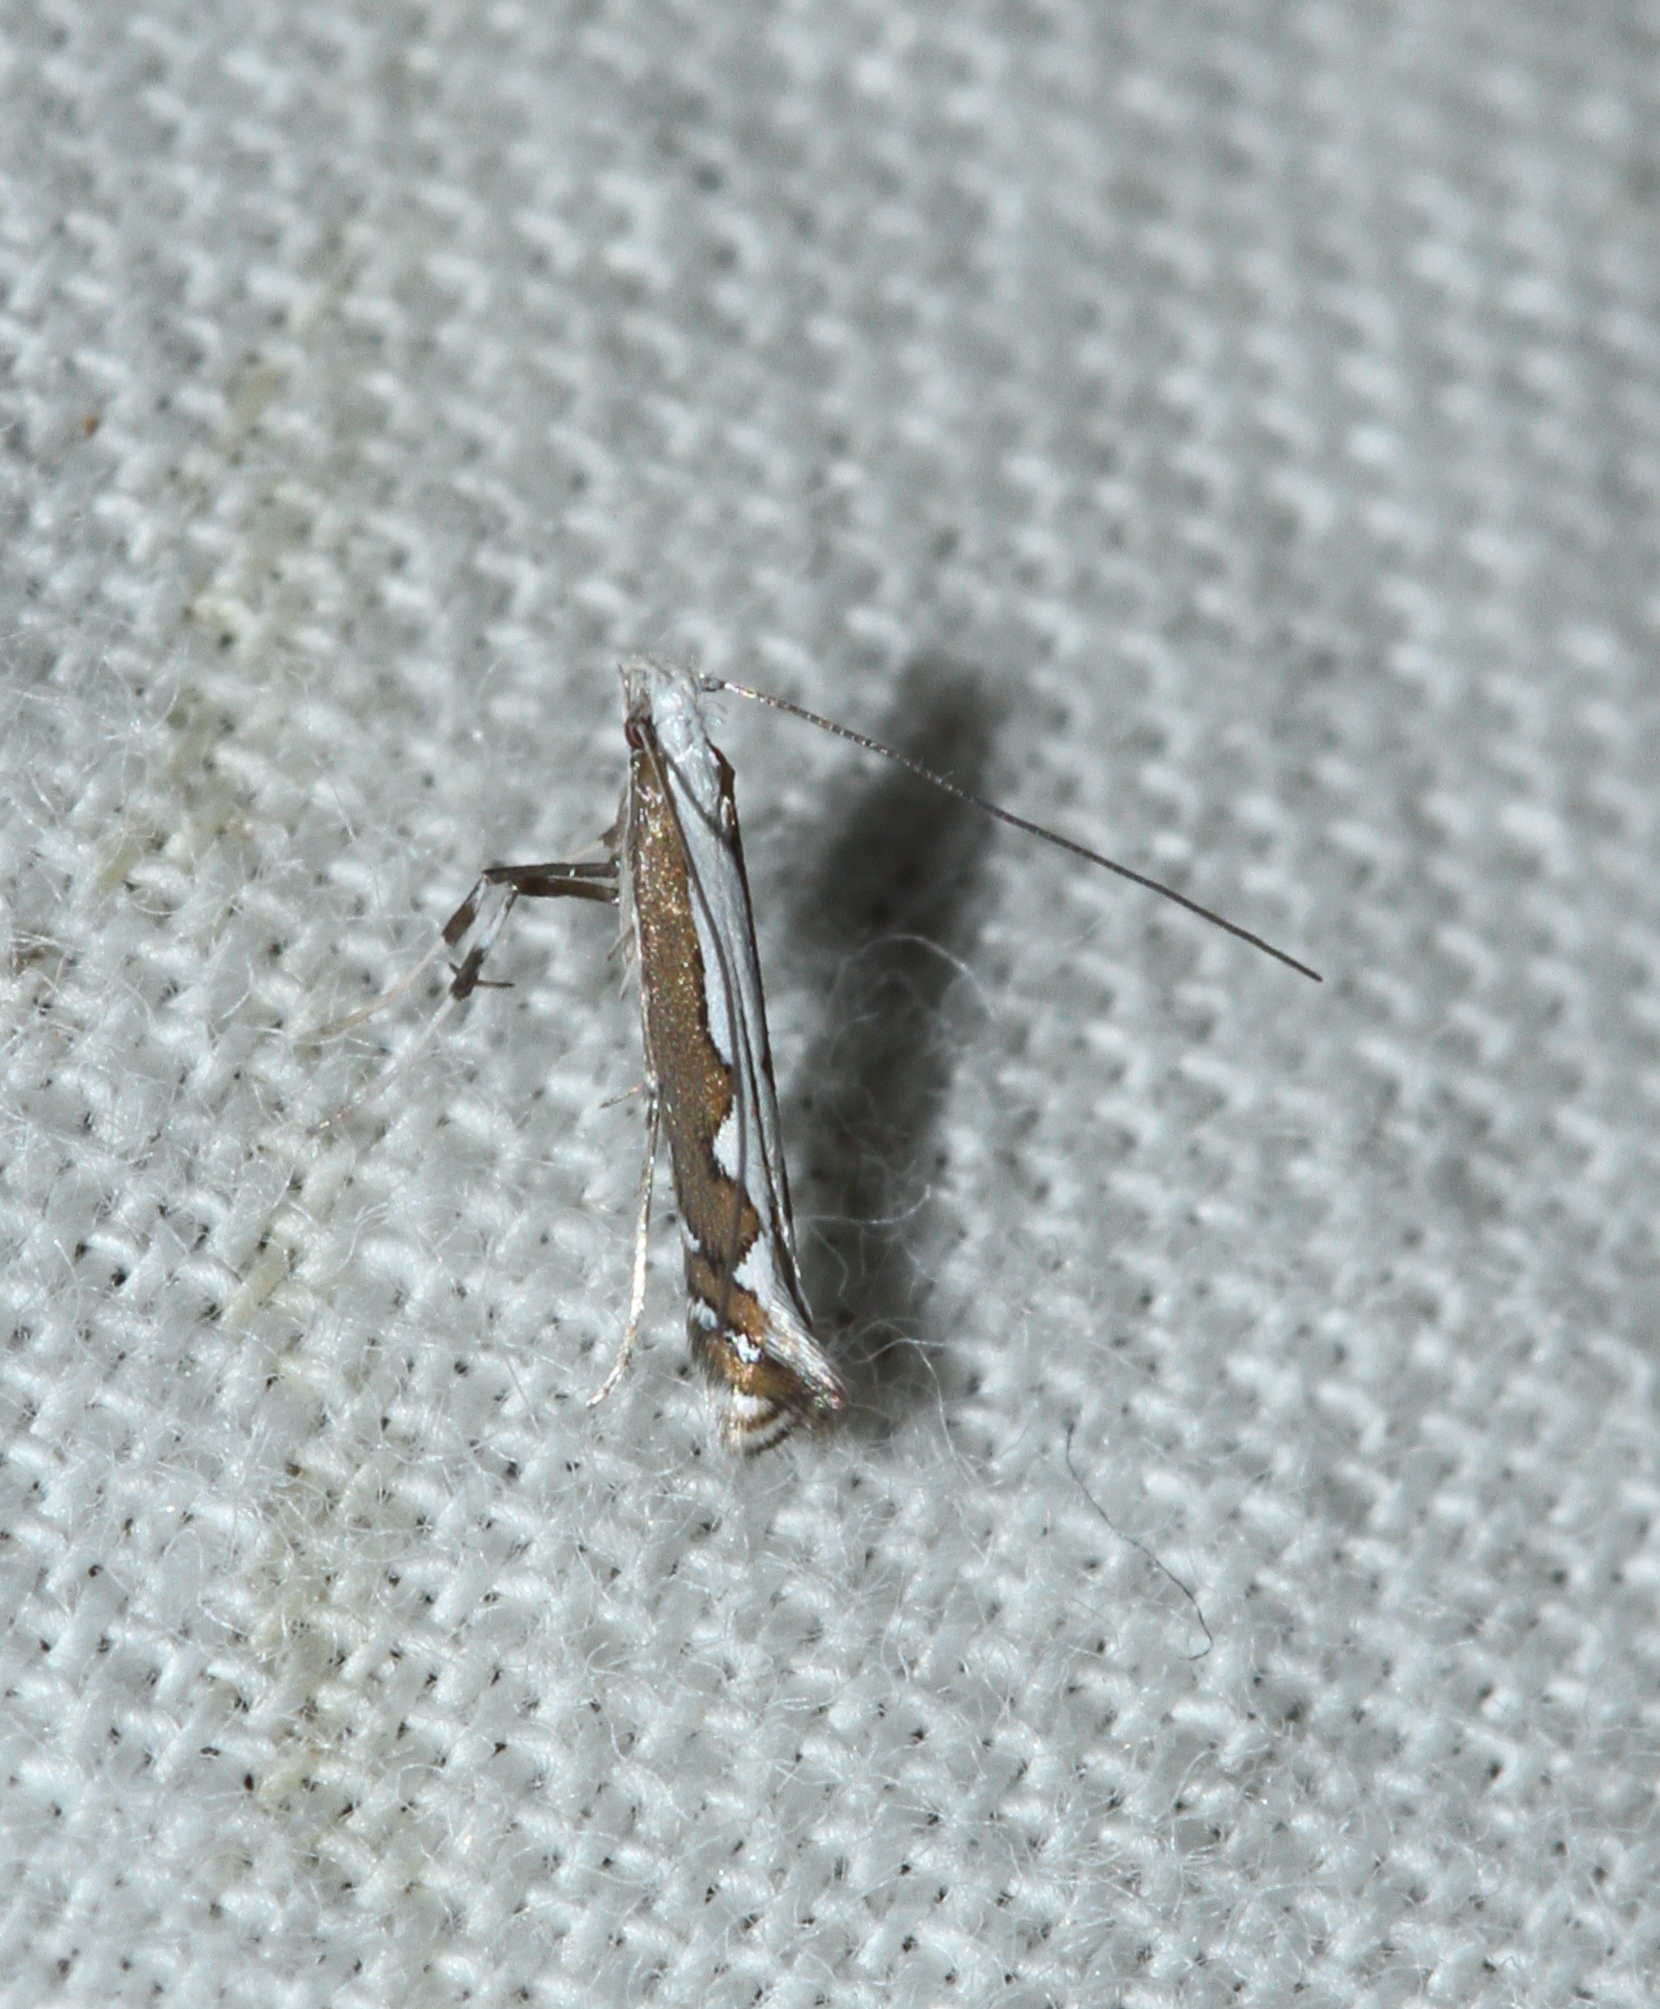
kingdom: Animalia
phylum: Arthropoda
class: Insecta
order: Lepidoptera
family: Gracillariidae
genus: Dialectica
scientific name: Dialectica scalariella
